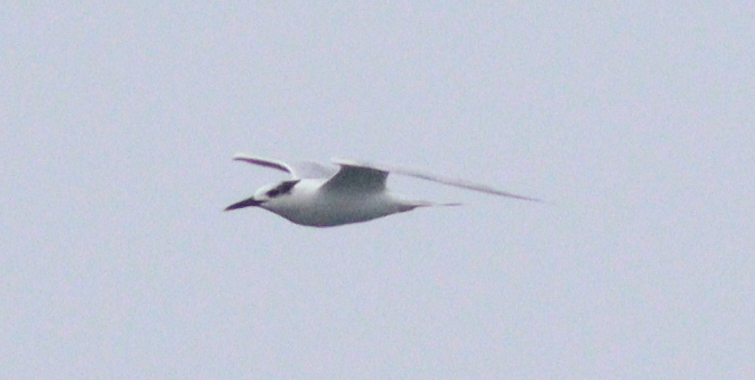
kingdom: Animalia
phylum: Chordata
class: Aves
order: Charadriiformes
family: Laridae
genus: Thalasseus
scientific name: Thalasseus sandvicensis
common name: Sandwich tern
